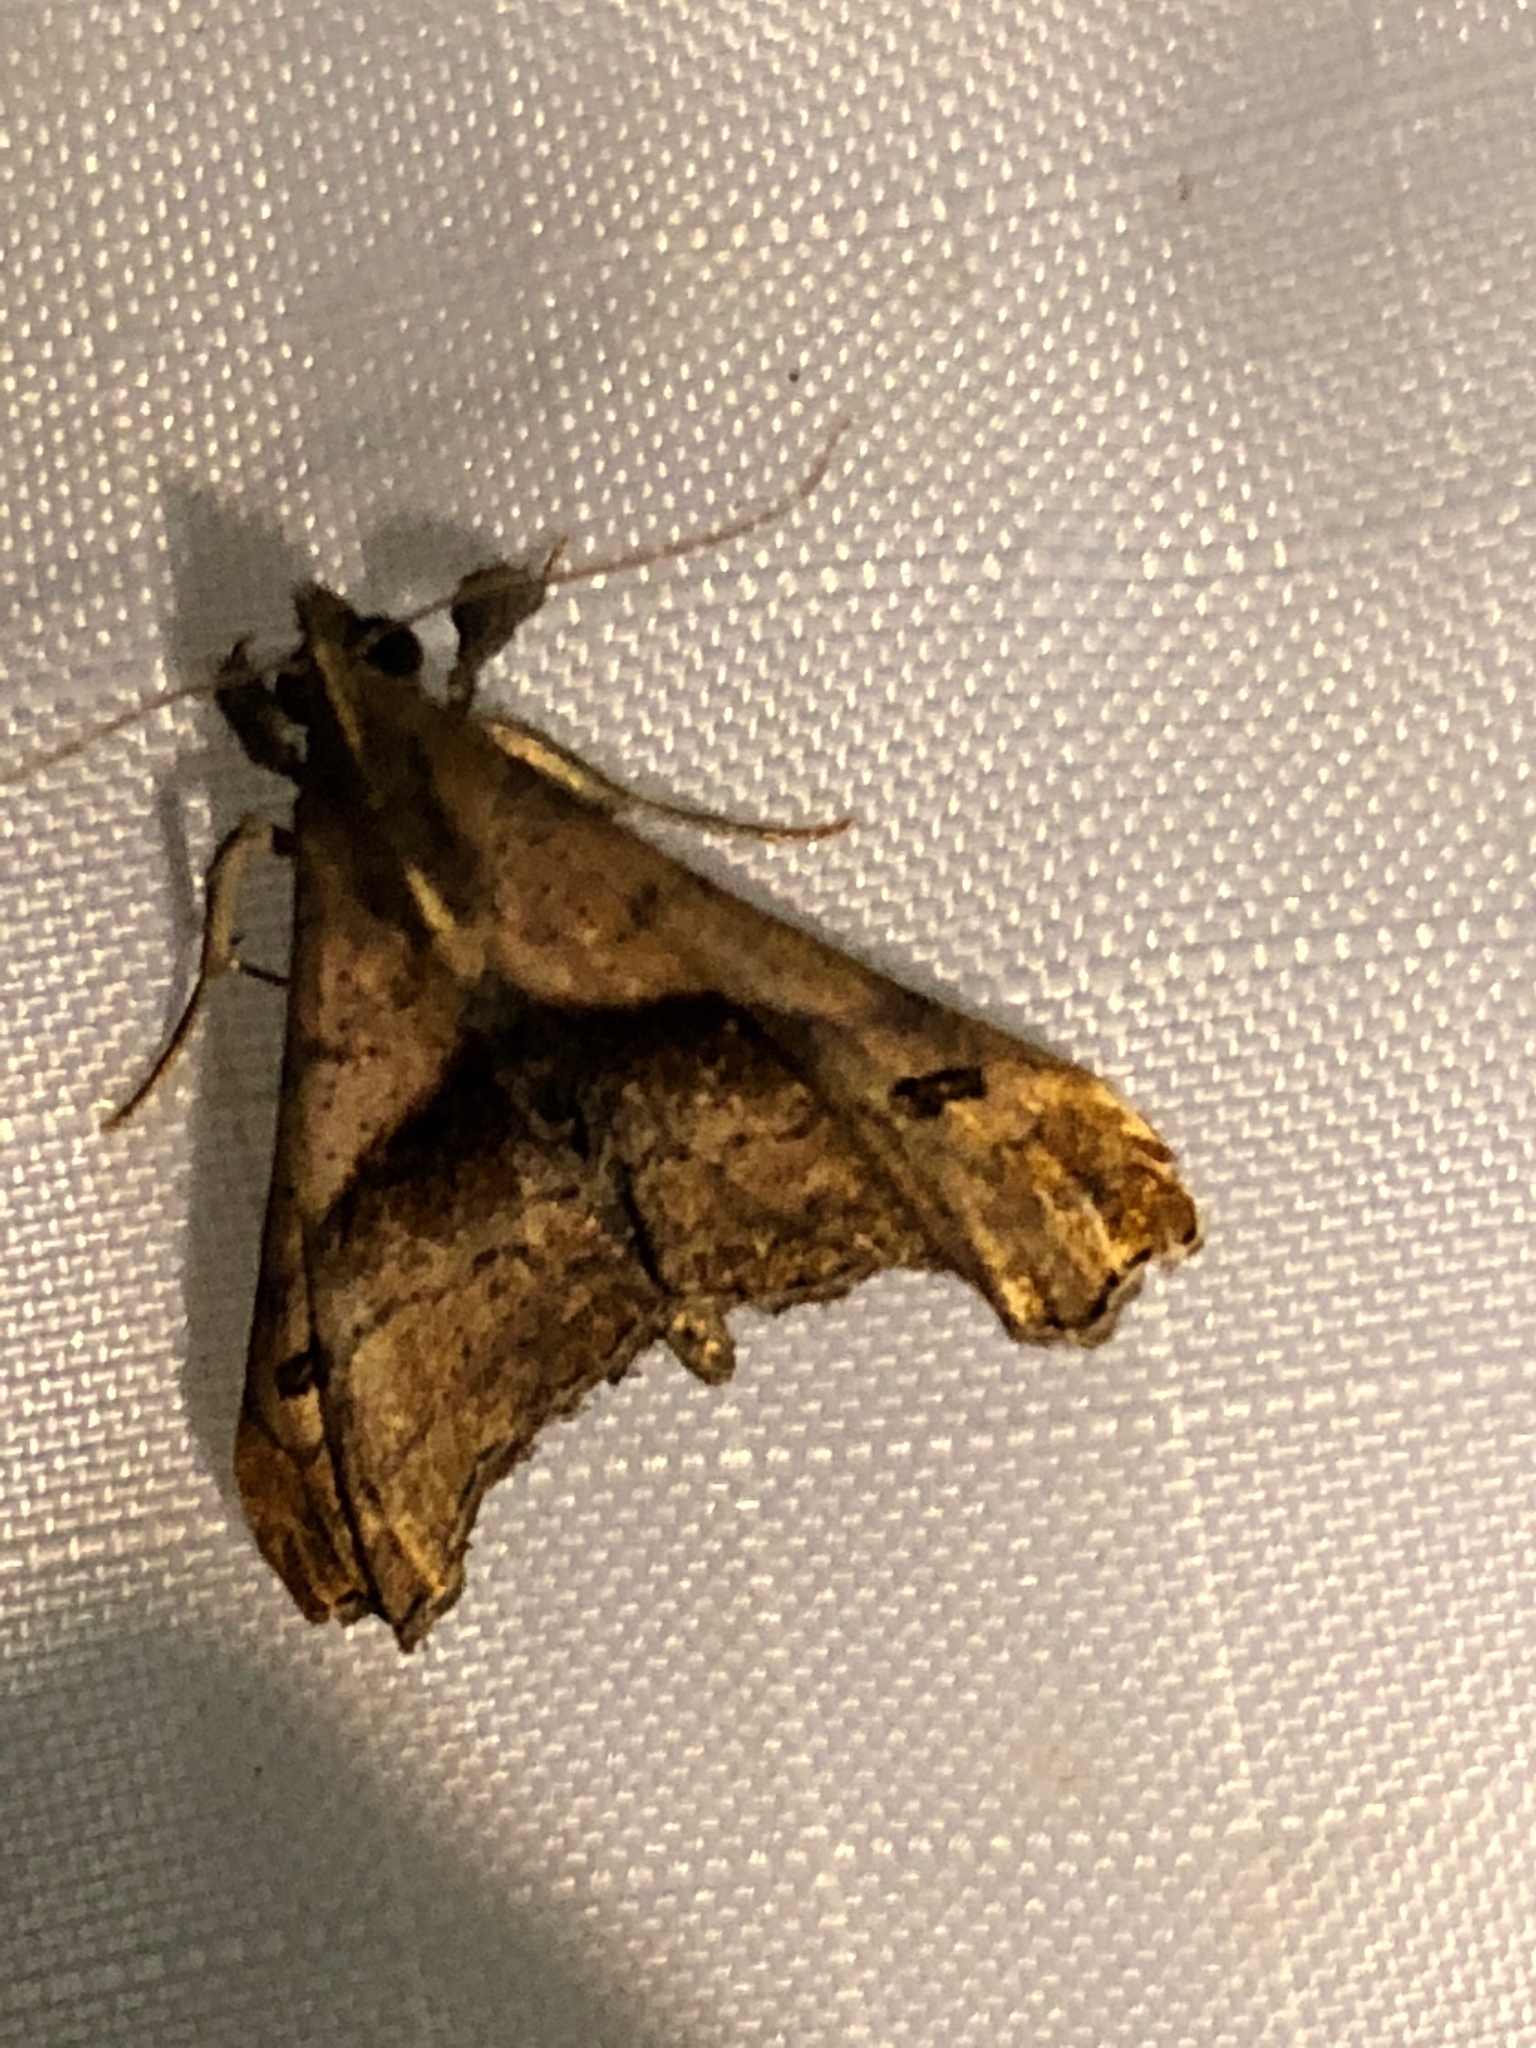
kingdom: Animalia
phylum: Arthropoda
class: Insecta
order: Lepidoptera
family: Erebidae
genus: Palthis
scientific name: Palthis angulalis
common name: Dark-spotted palthis moth
